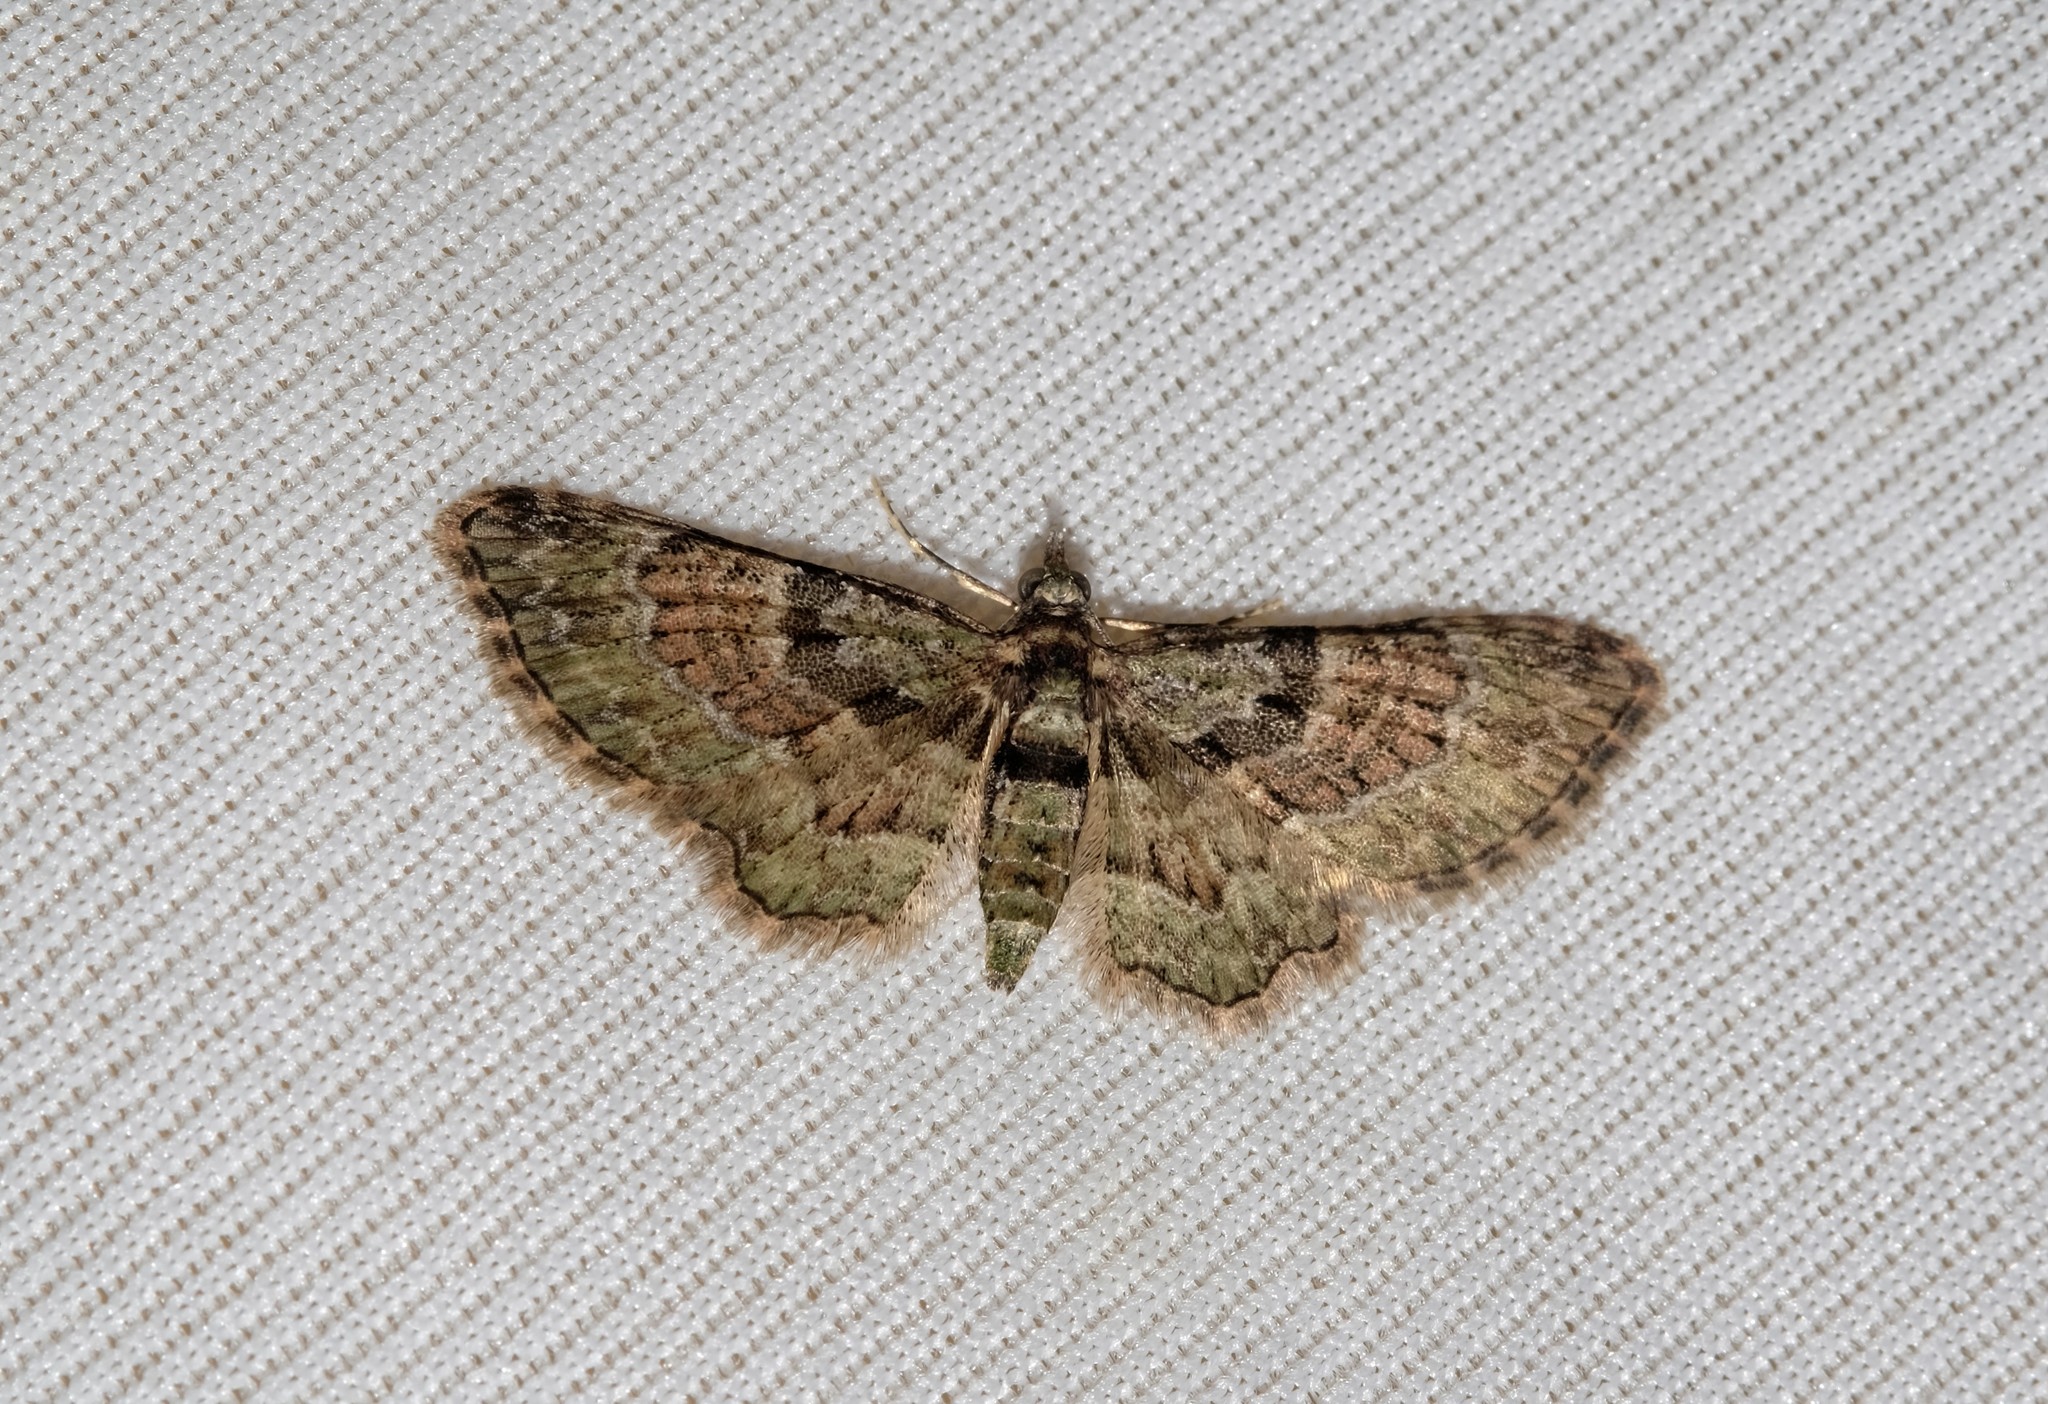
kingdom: Animalia
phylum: Arthropoda
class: Insecta
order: Lepidoptera
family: Geometridae
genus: Chloroclystis
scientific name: Chloroclystis catastreptes
